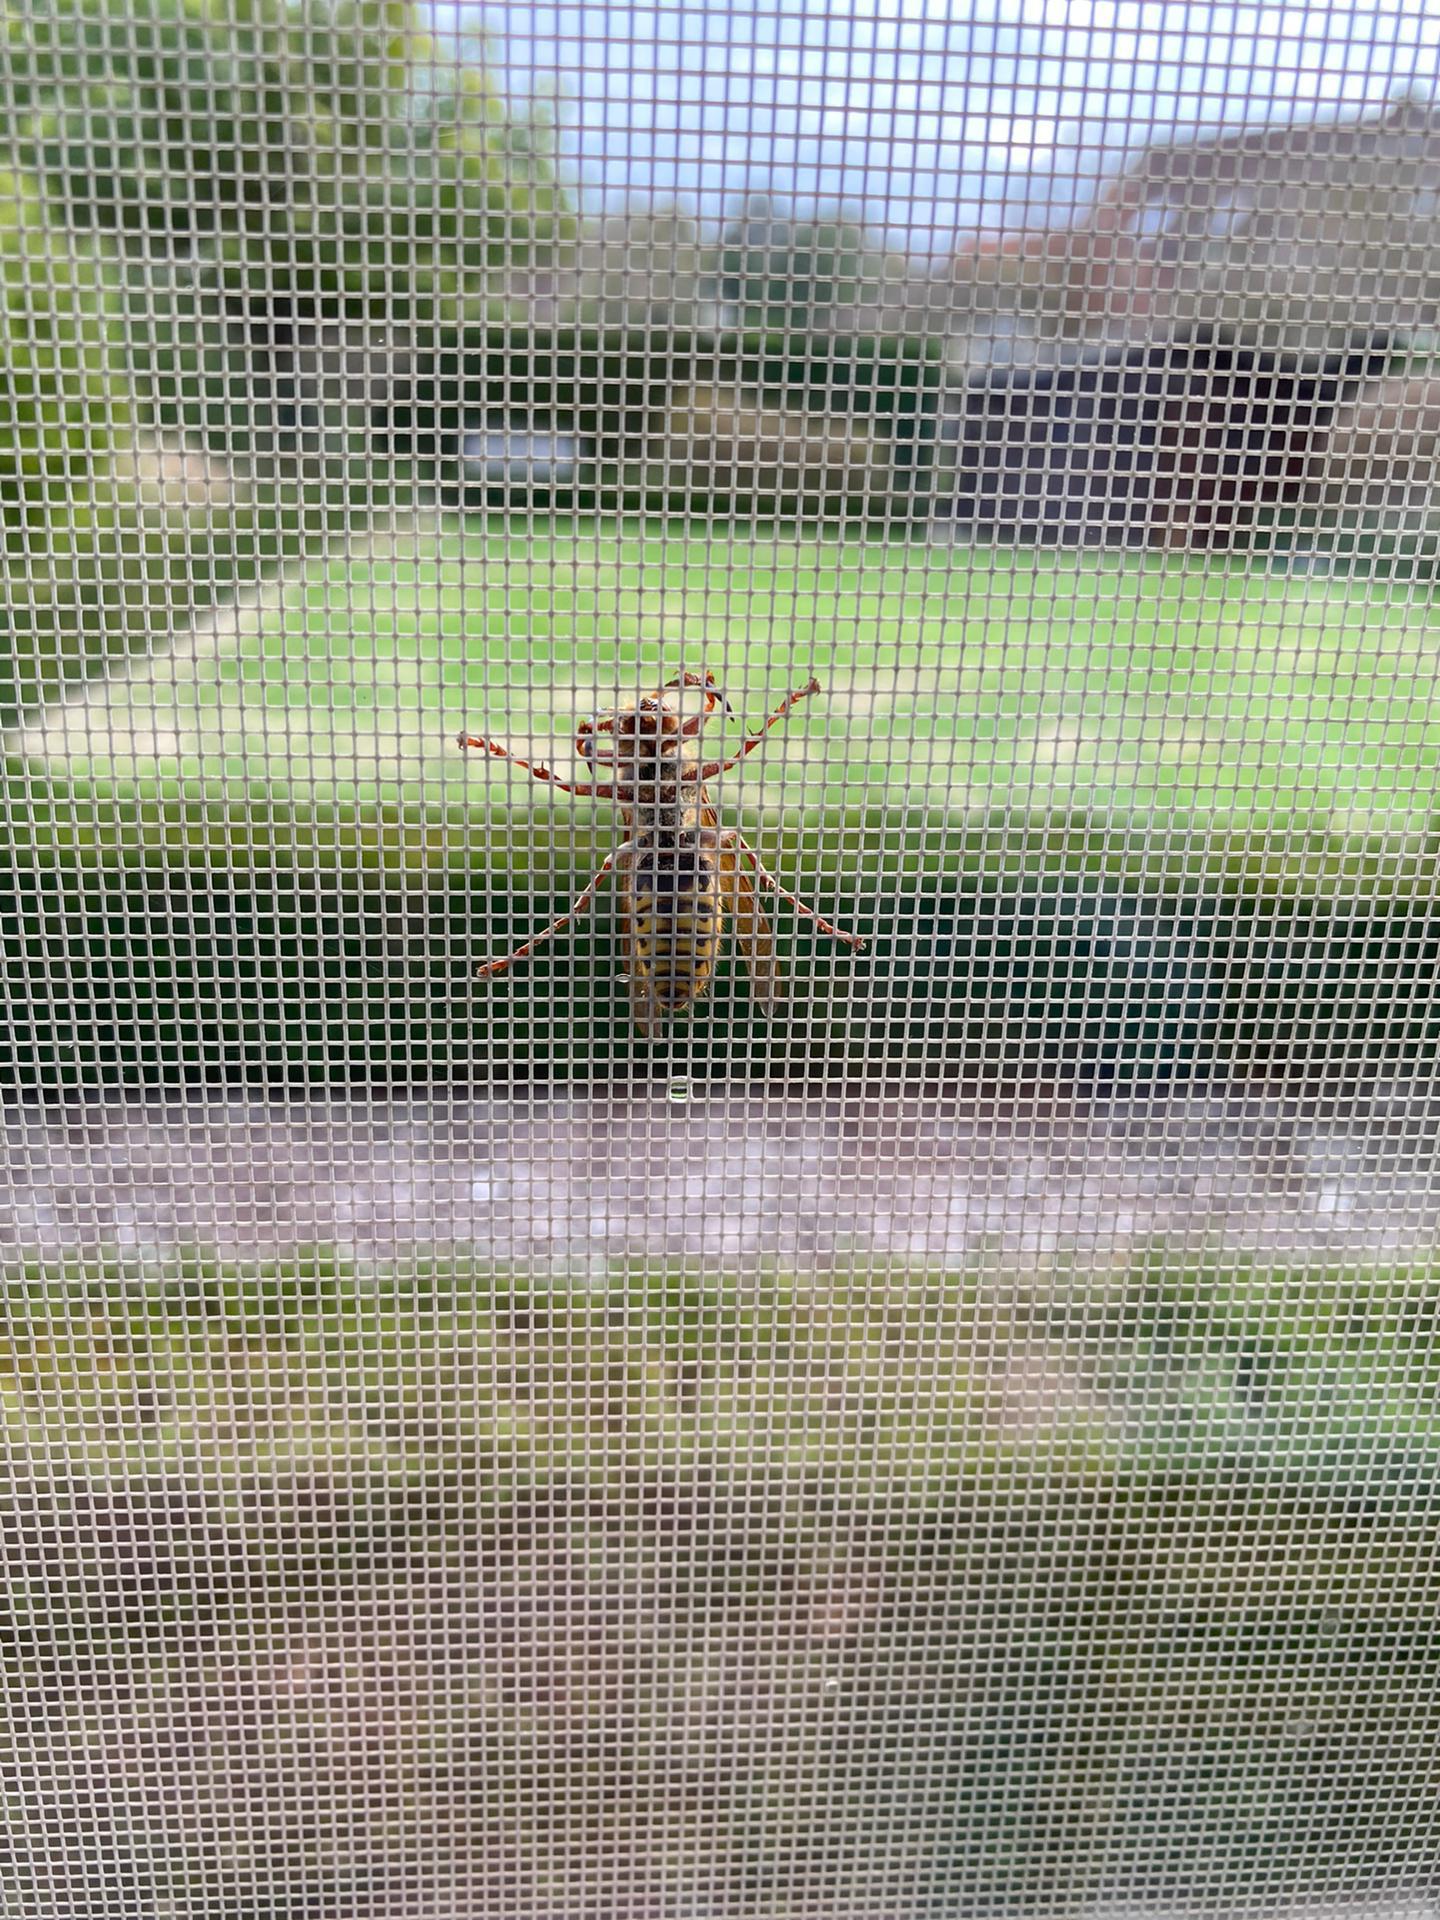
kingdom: Animalia
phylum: Arthropoda
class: Insecta
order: Hymenoptera
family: Vespidae
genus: Vespa
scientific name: Vespa crabro
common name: Hornet
